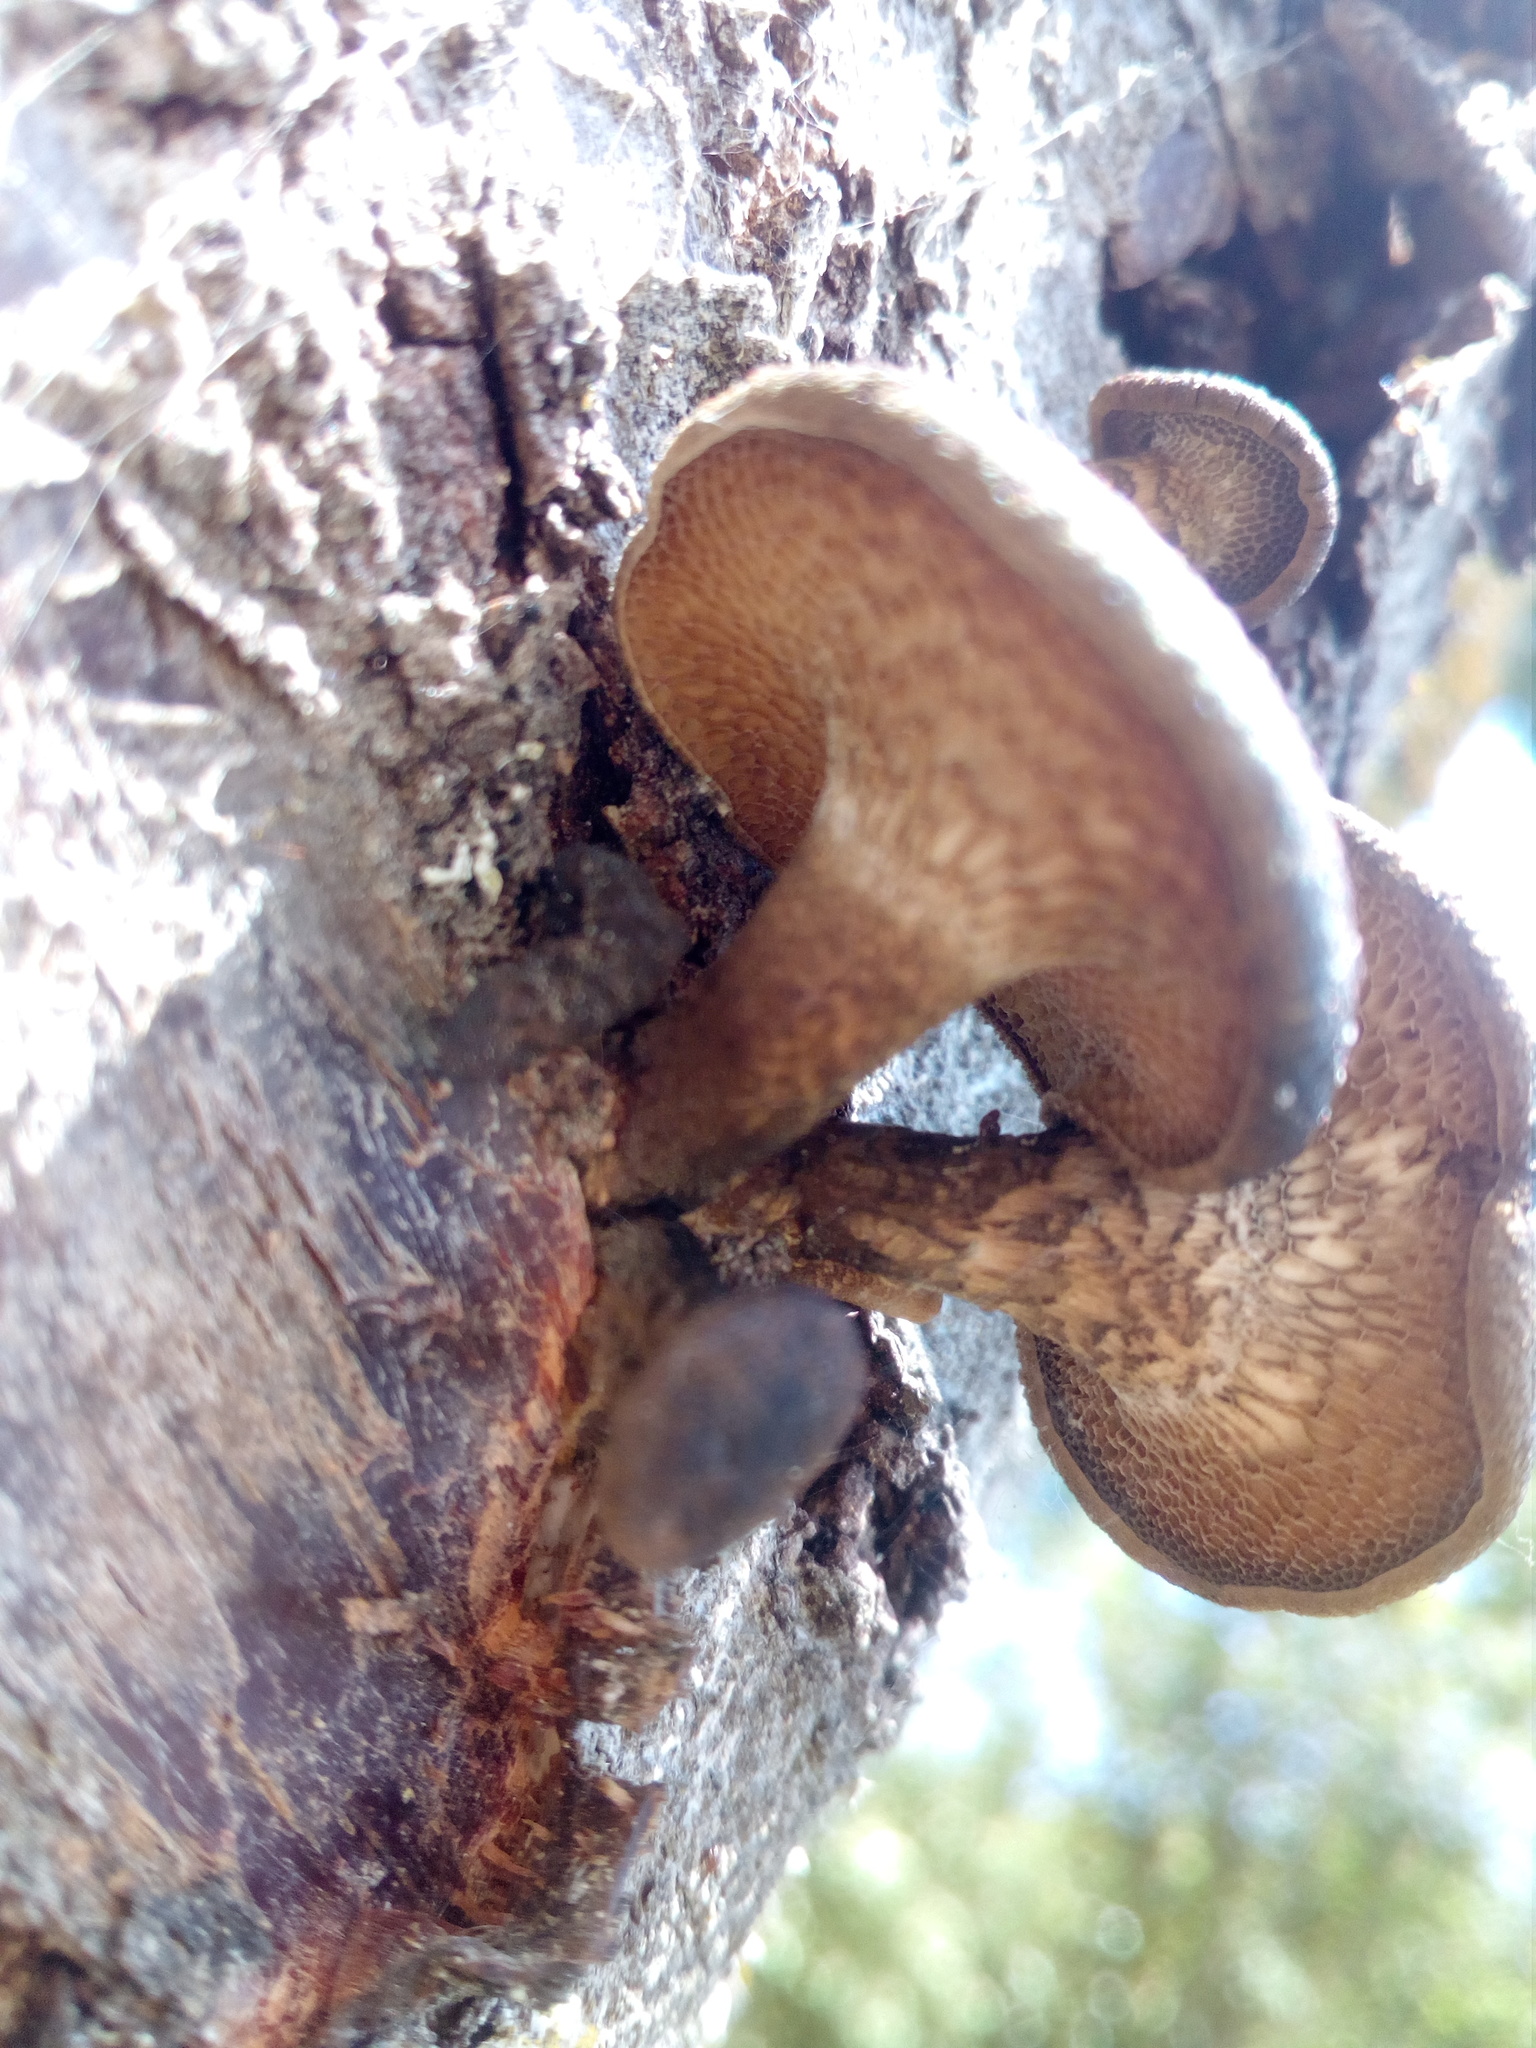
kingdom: Fungi
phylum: Basidiomycota
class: Agaricomycetes
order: Polyporales
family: Polyporaceae
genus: Lentinus
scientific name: Lentinus arcularius
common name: Spring polypore
